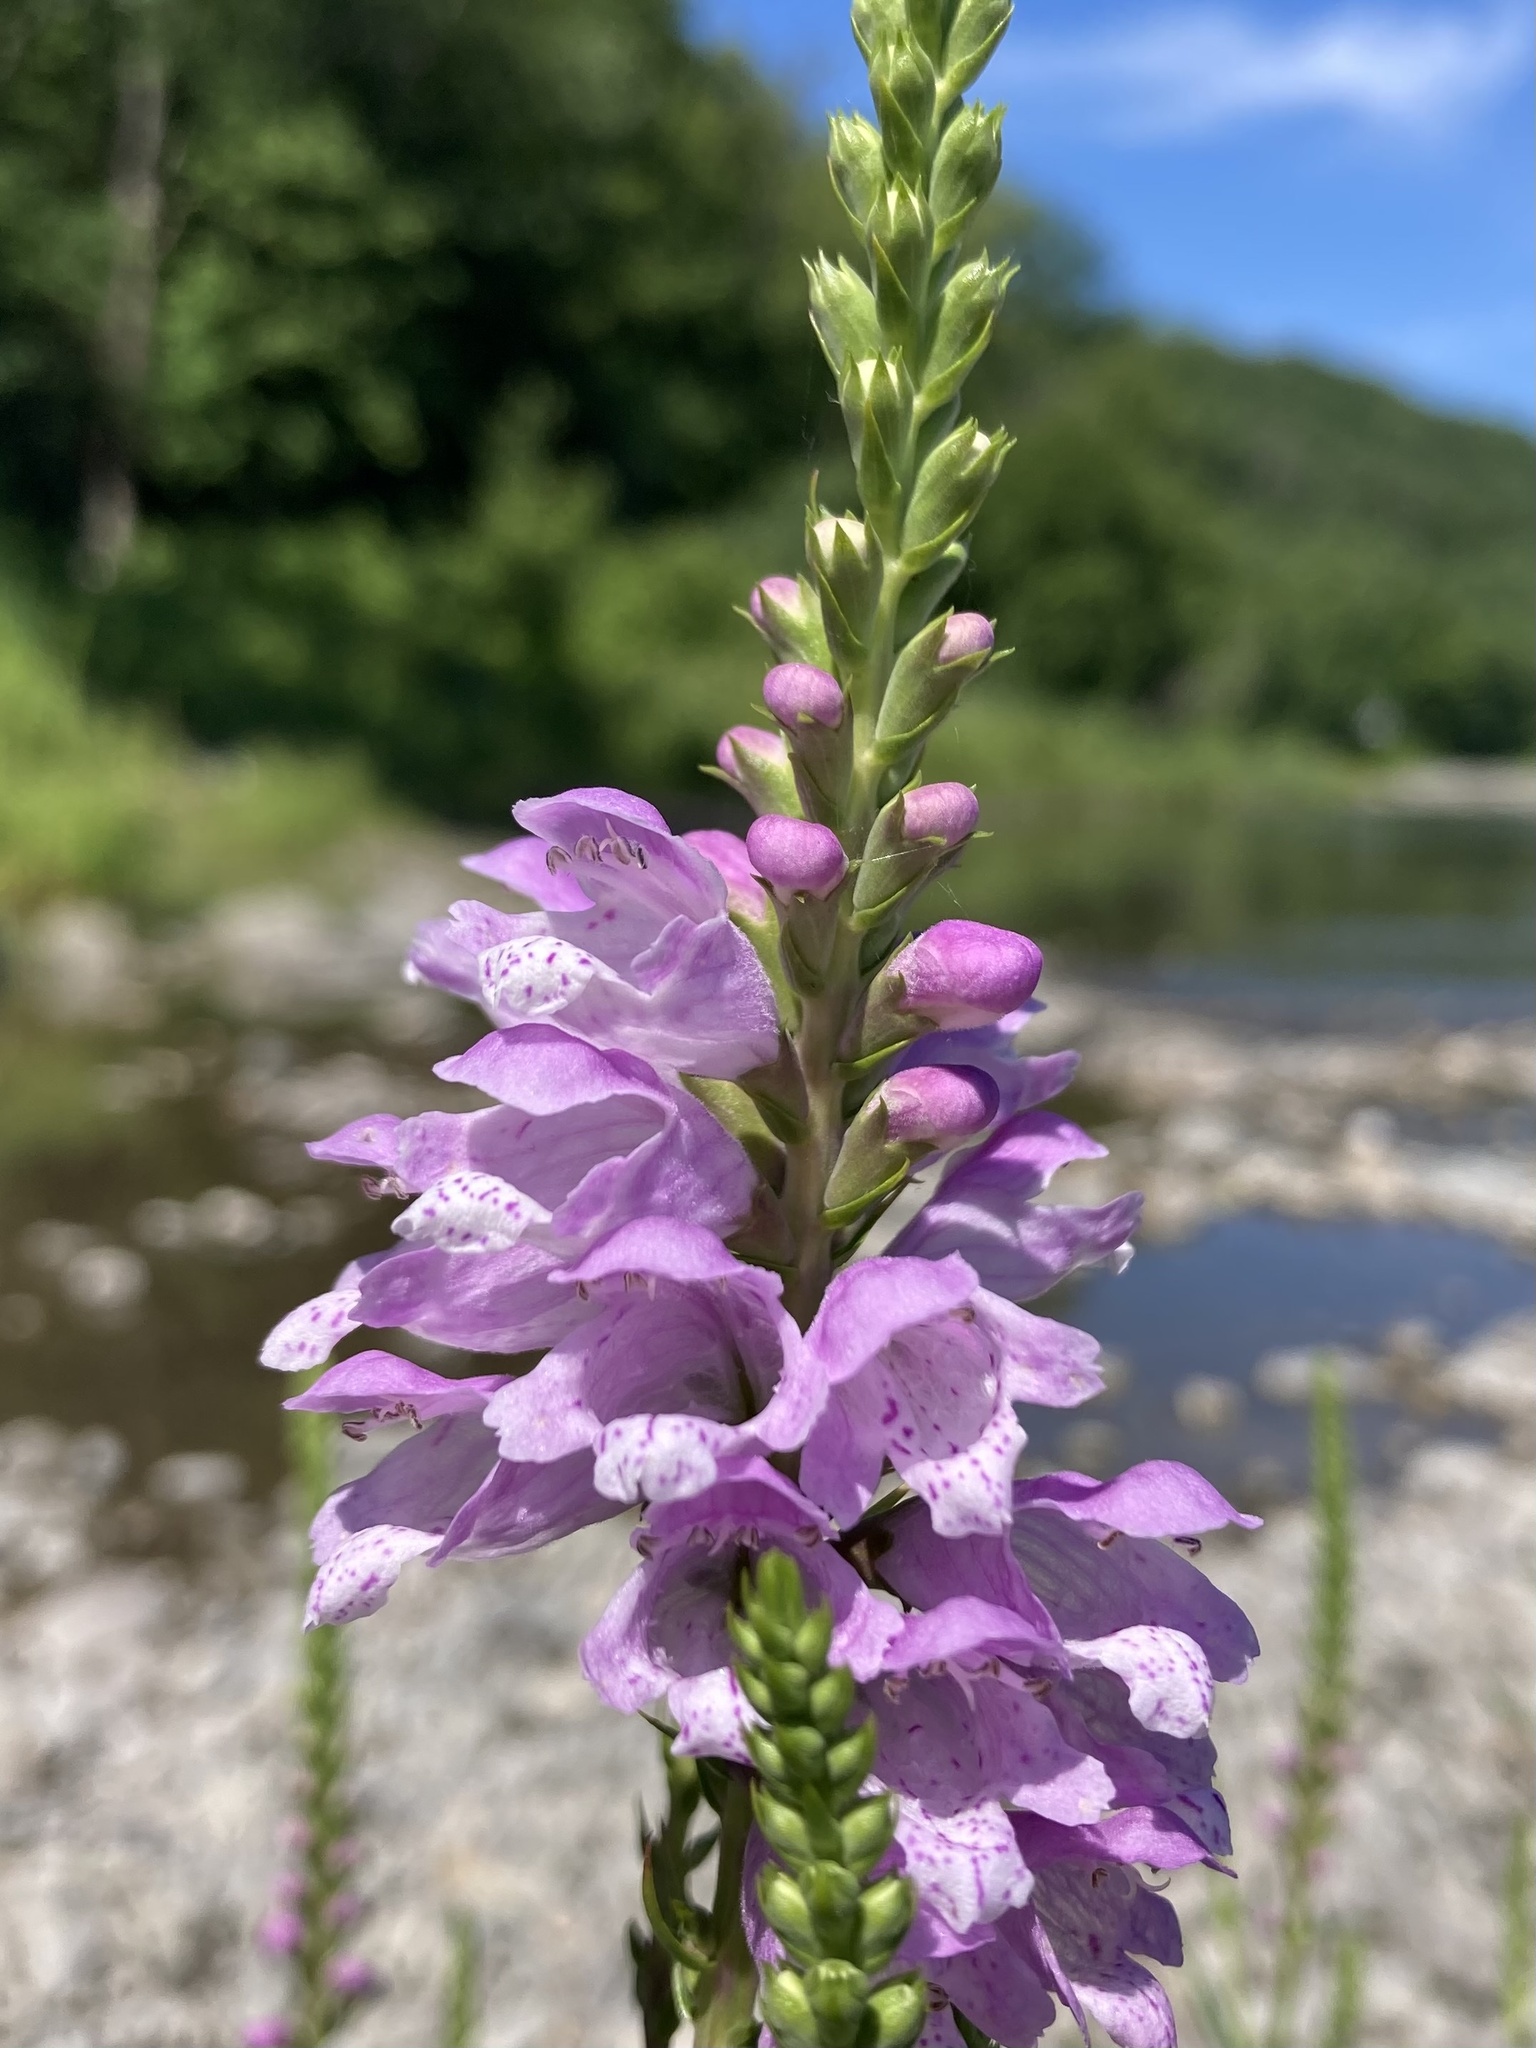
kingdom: Plantae
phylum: Tracheophyta
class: Magnoliopsida
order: Lamiales
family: Lamiaceae
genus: Physostegia
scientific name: Physostegia virginiana
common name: Obedient-plant
